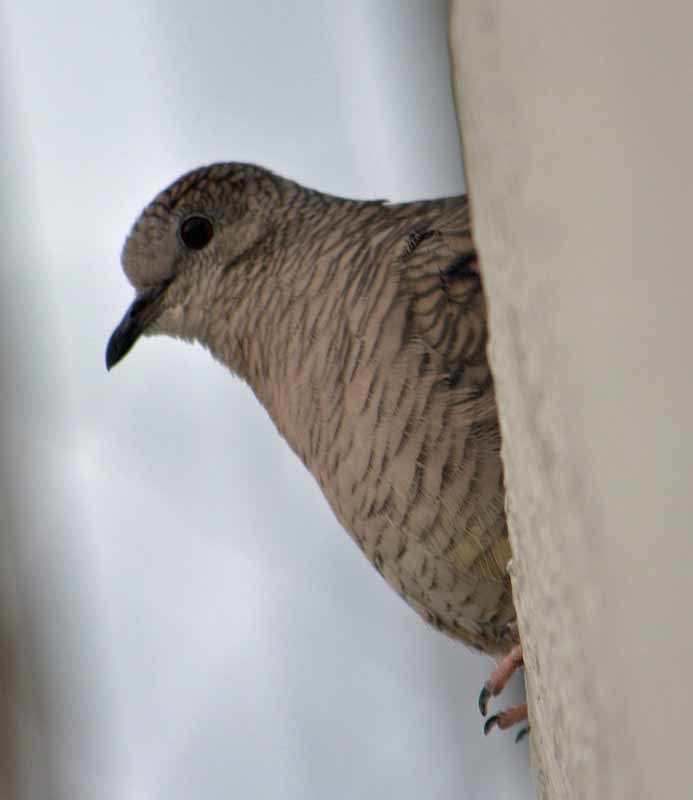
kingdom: Animalia
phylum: Chordata
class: Aves
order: Columbiformes
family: Columbidae
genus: Columbina
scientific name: Columbina inca
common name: Inca dove
